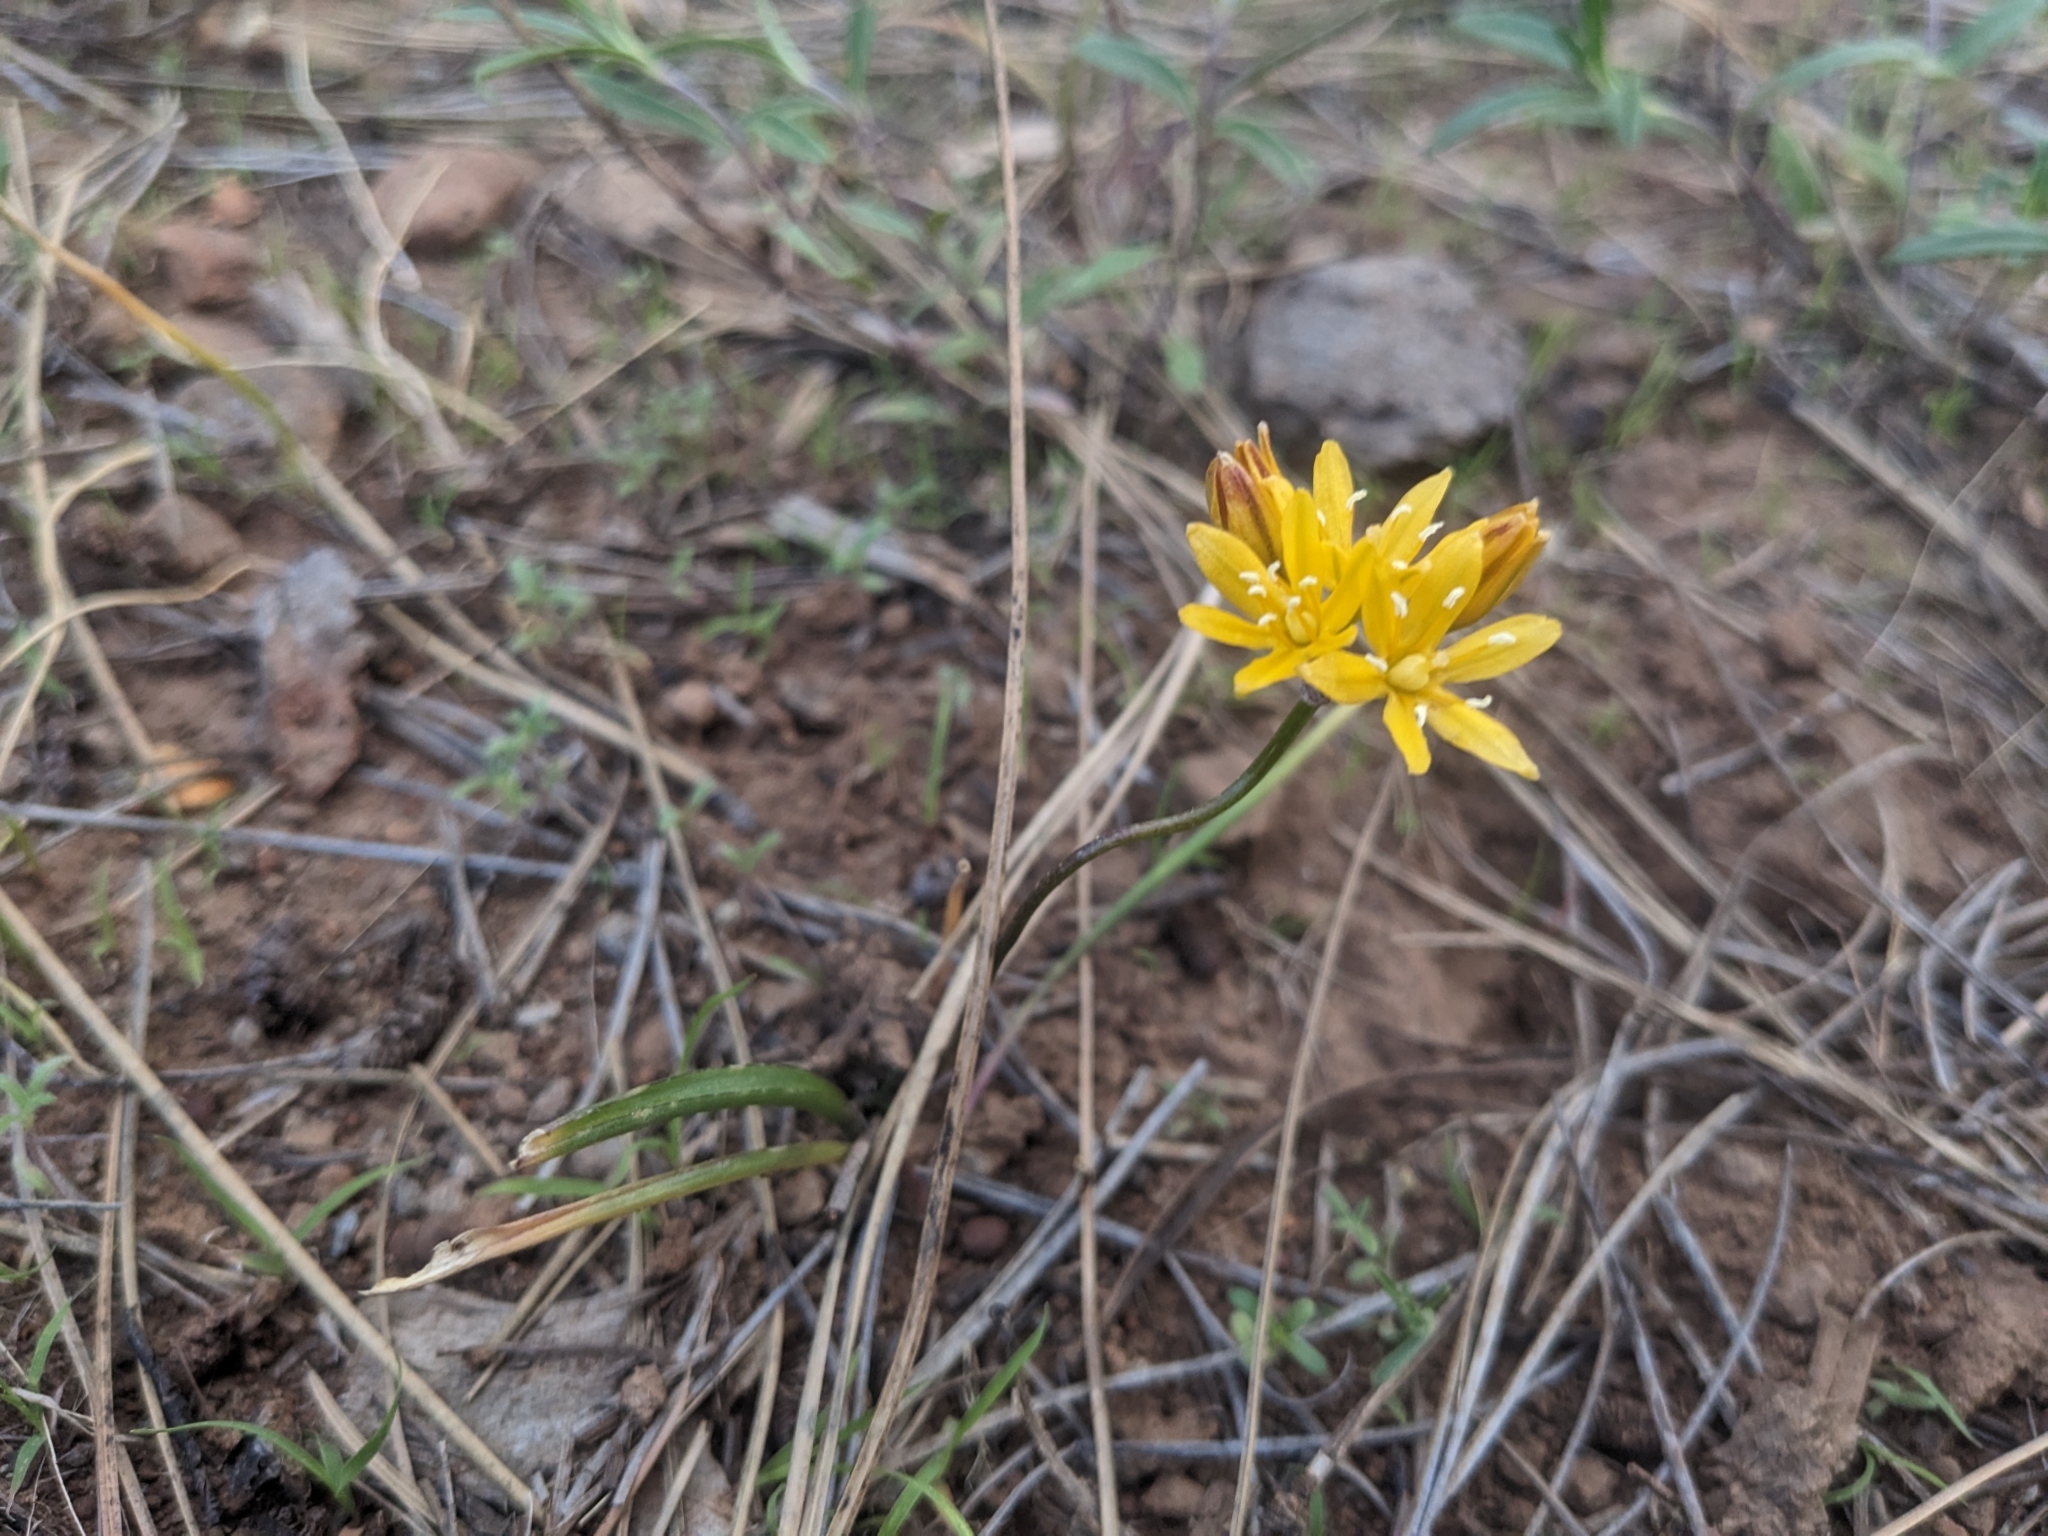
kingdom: Plantae
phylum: Tracheophyta
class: Liliopsida
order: Asparagales
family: Asparagaceae
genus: Triteleia
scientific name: Triteleia lemmoniae
